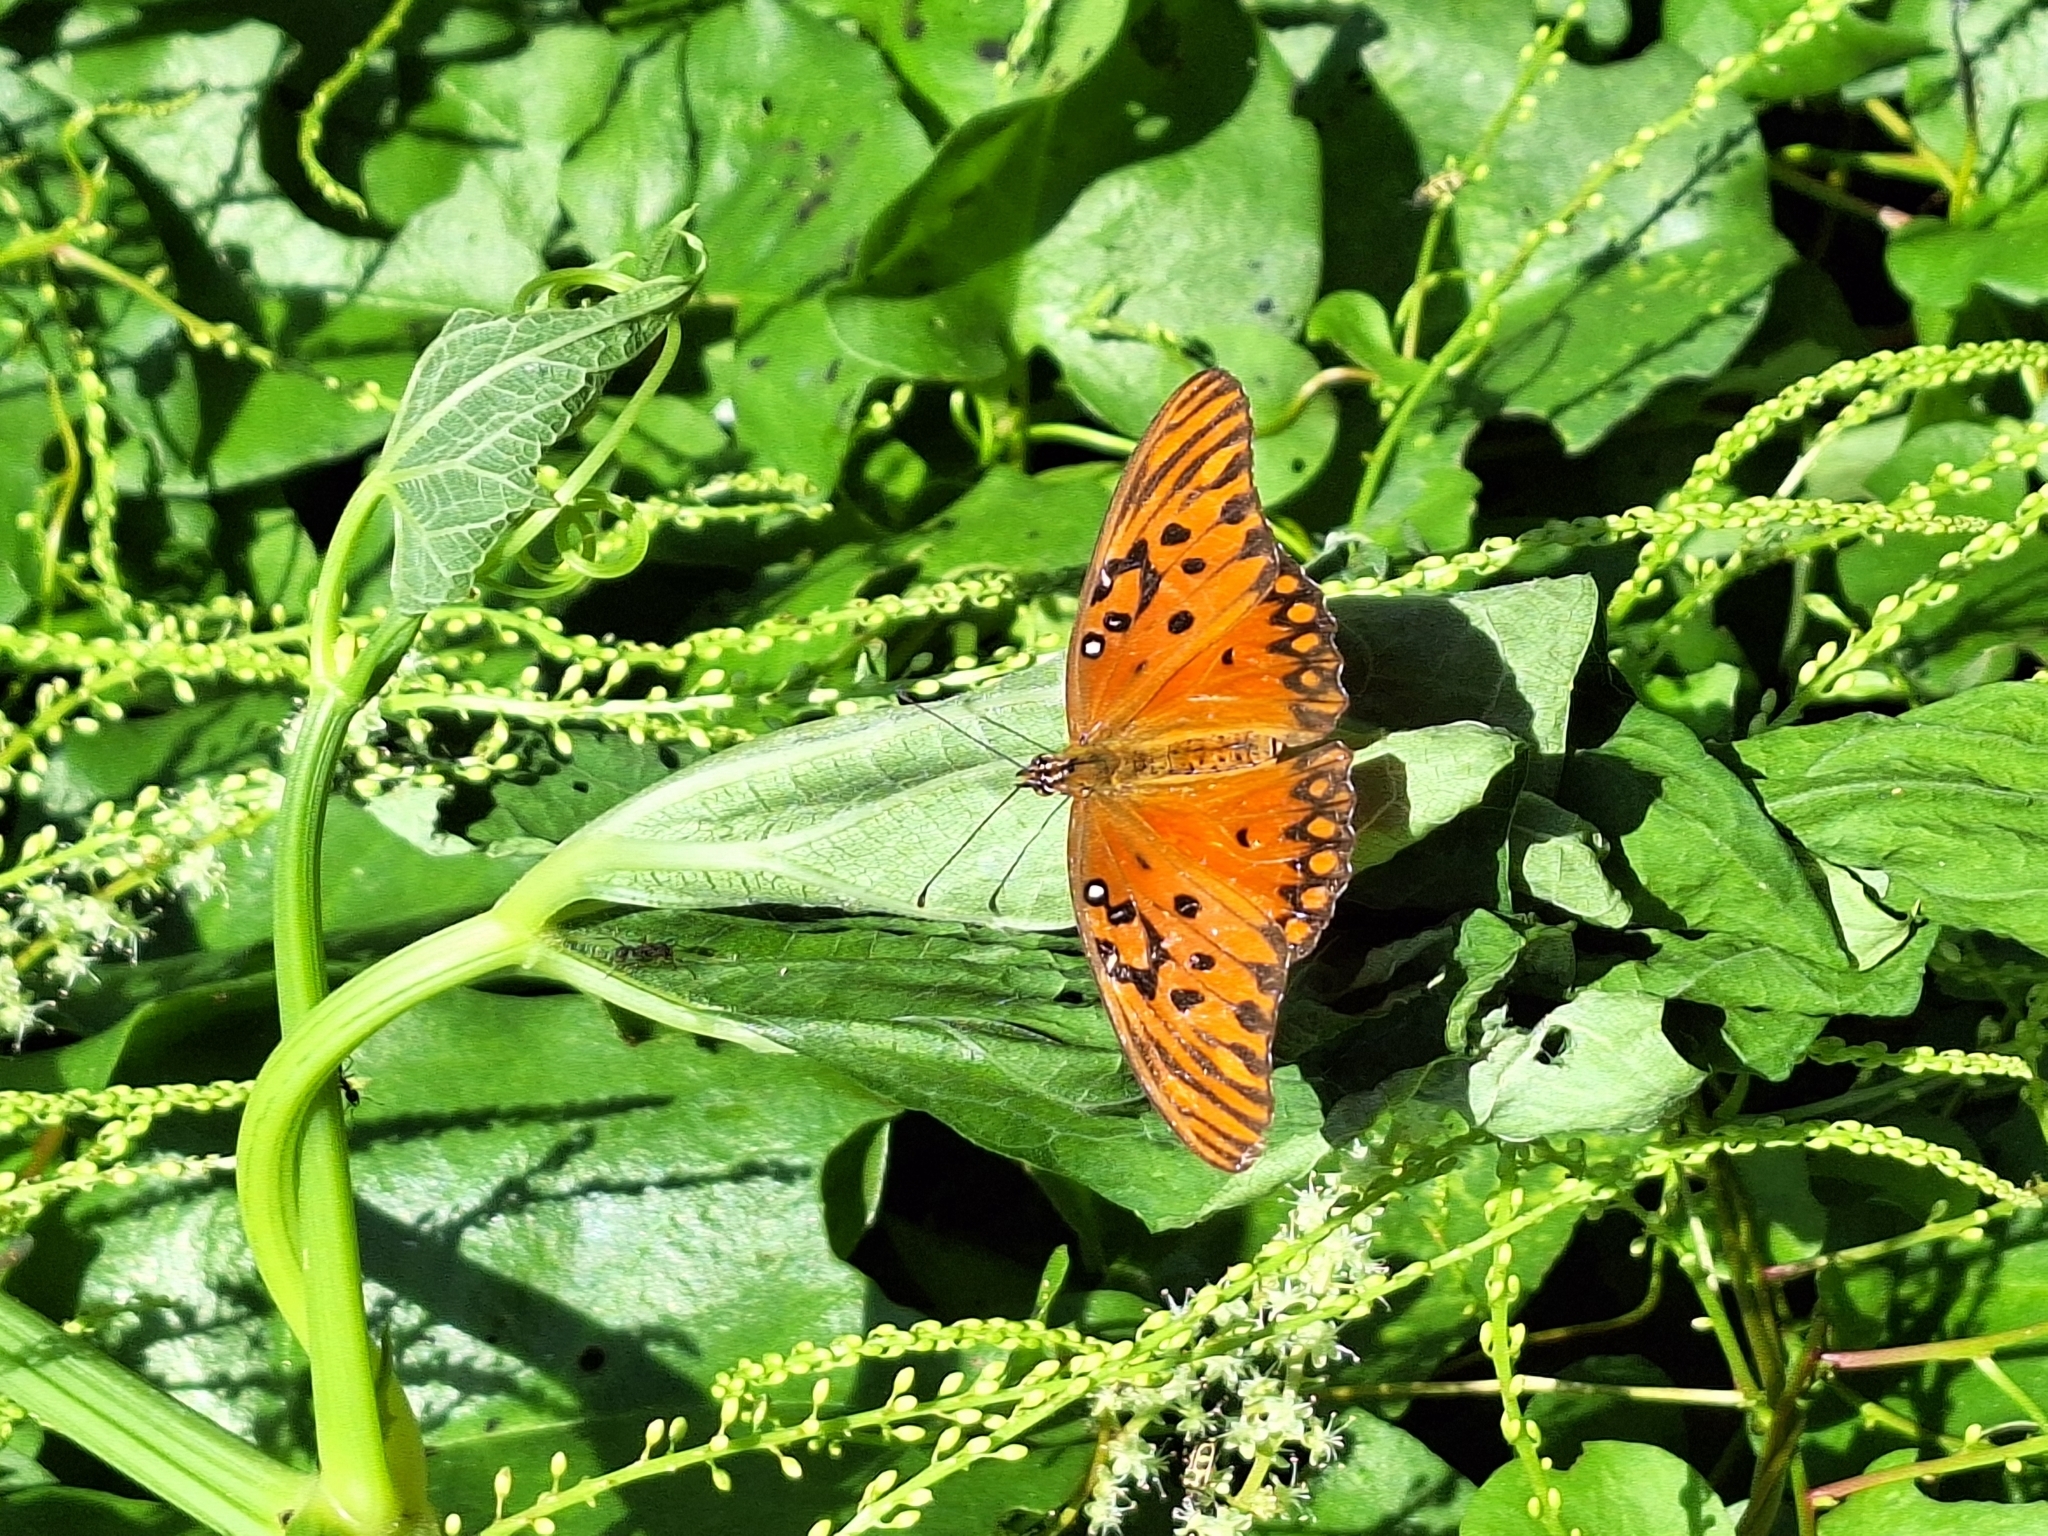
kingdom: Animalia
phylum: Arthropoda
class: Insecta
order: Lepidoptera
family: Nymphalidae
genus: Dione
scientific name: Dione vanillae
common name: Gulf fritillary
